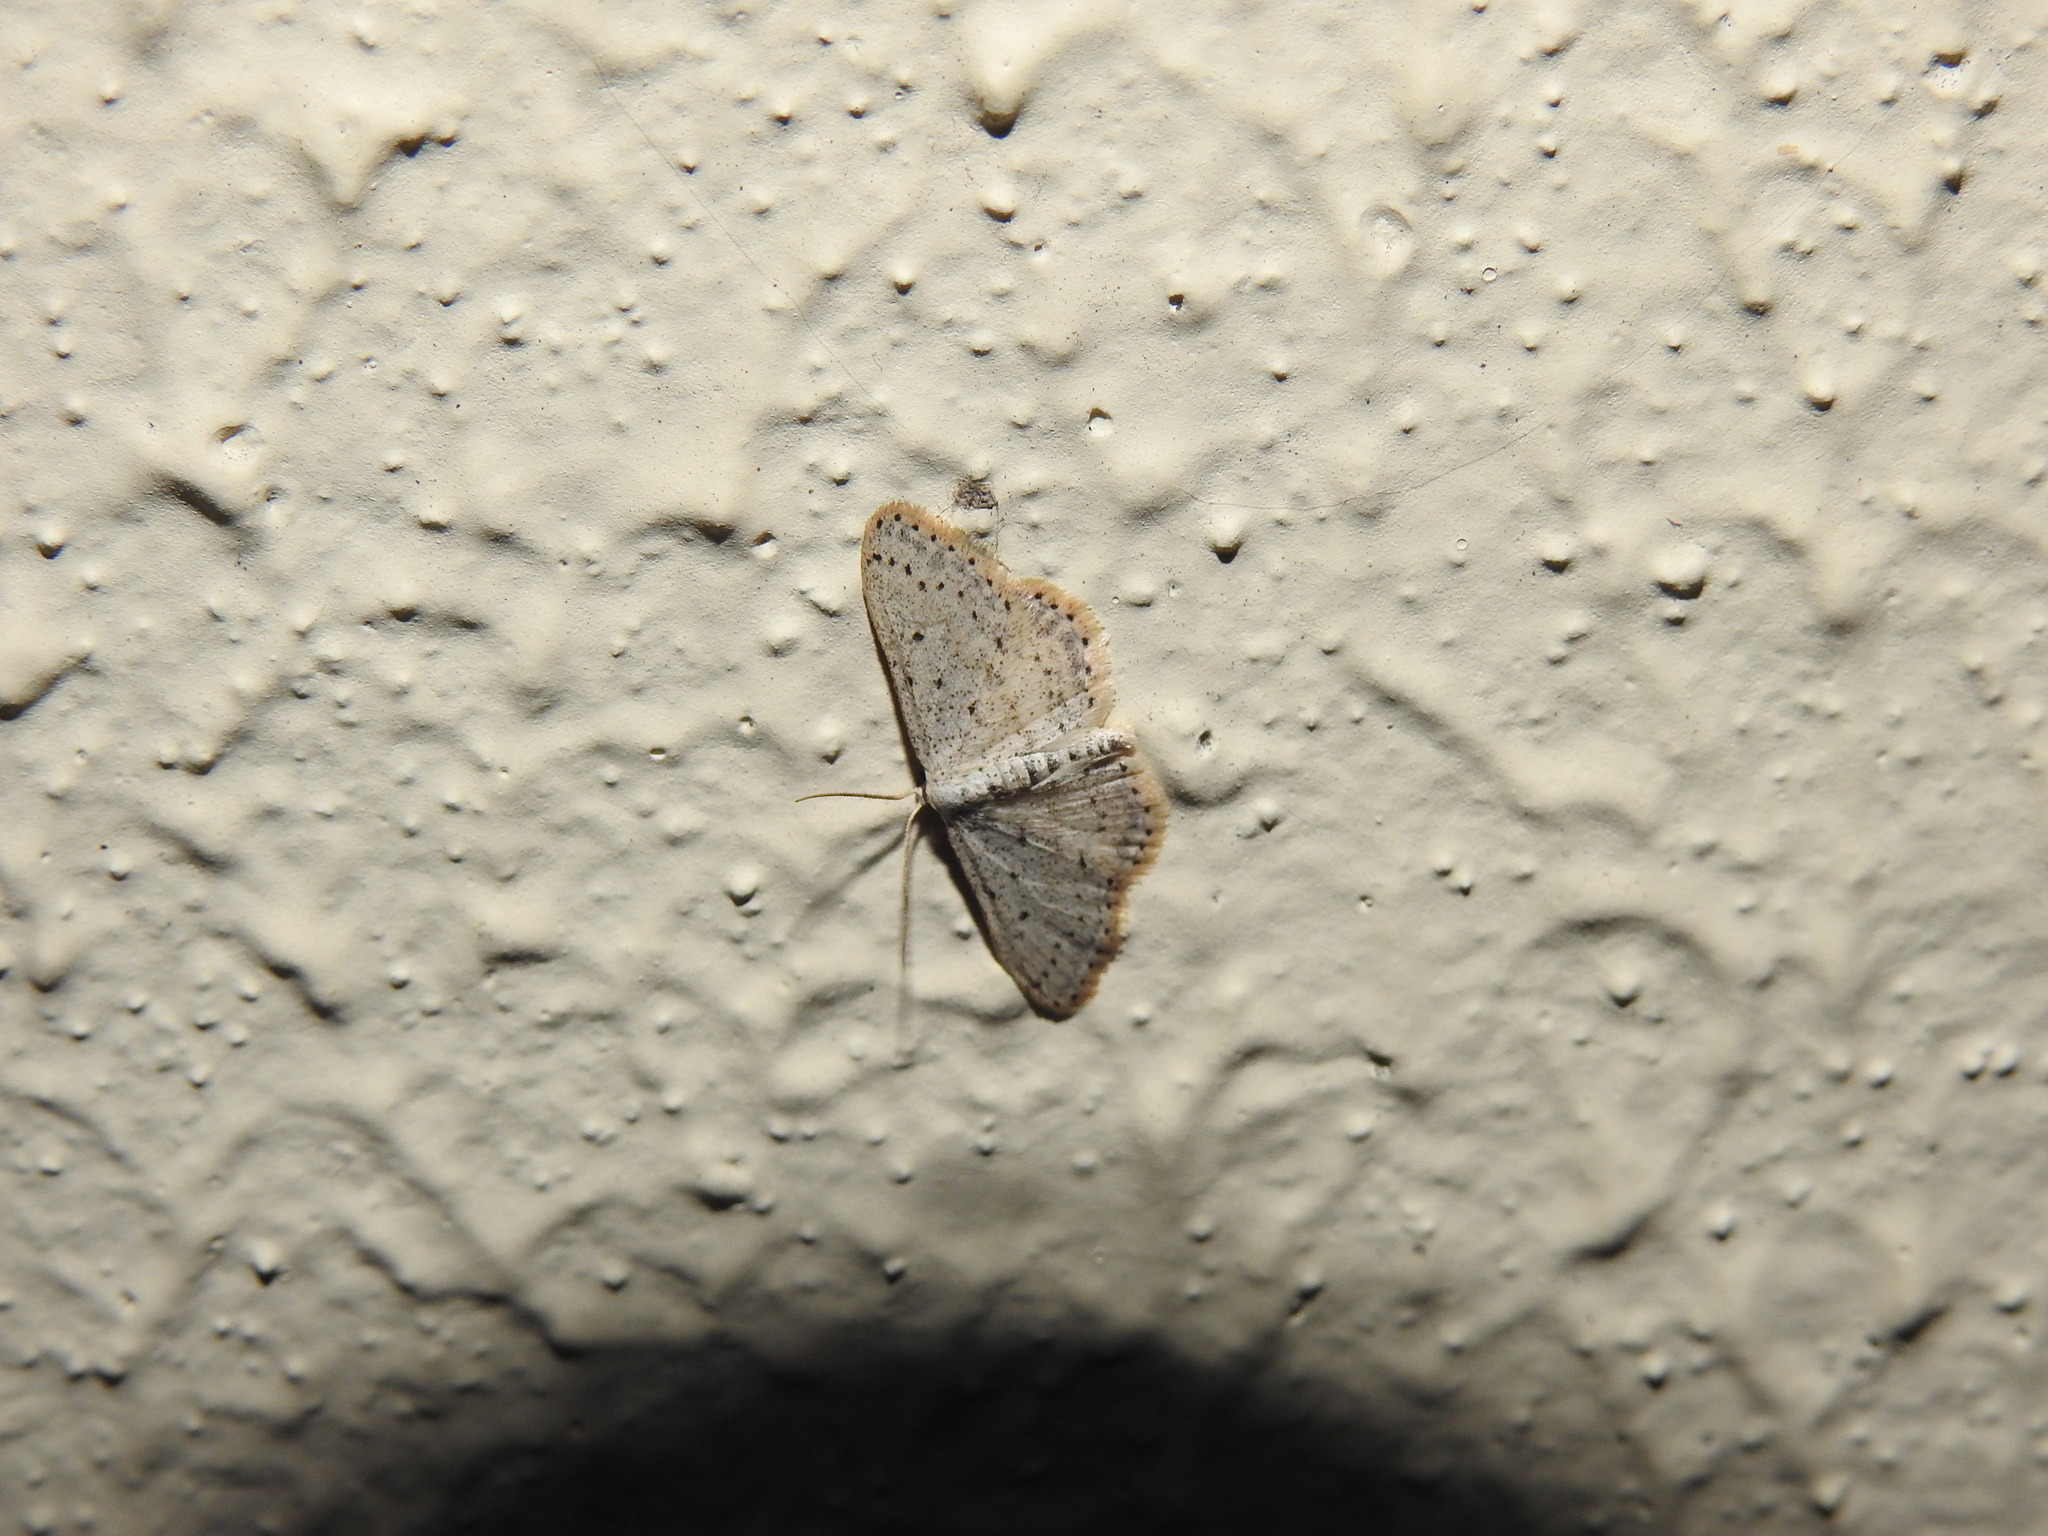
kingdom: Animalia
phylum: Arthropoda
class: Insecta
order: Lepidoptera
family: Geometridae
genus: Idaea
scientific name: Idaea seriata
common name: Small dusty wave
